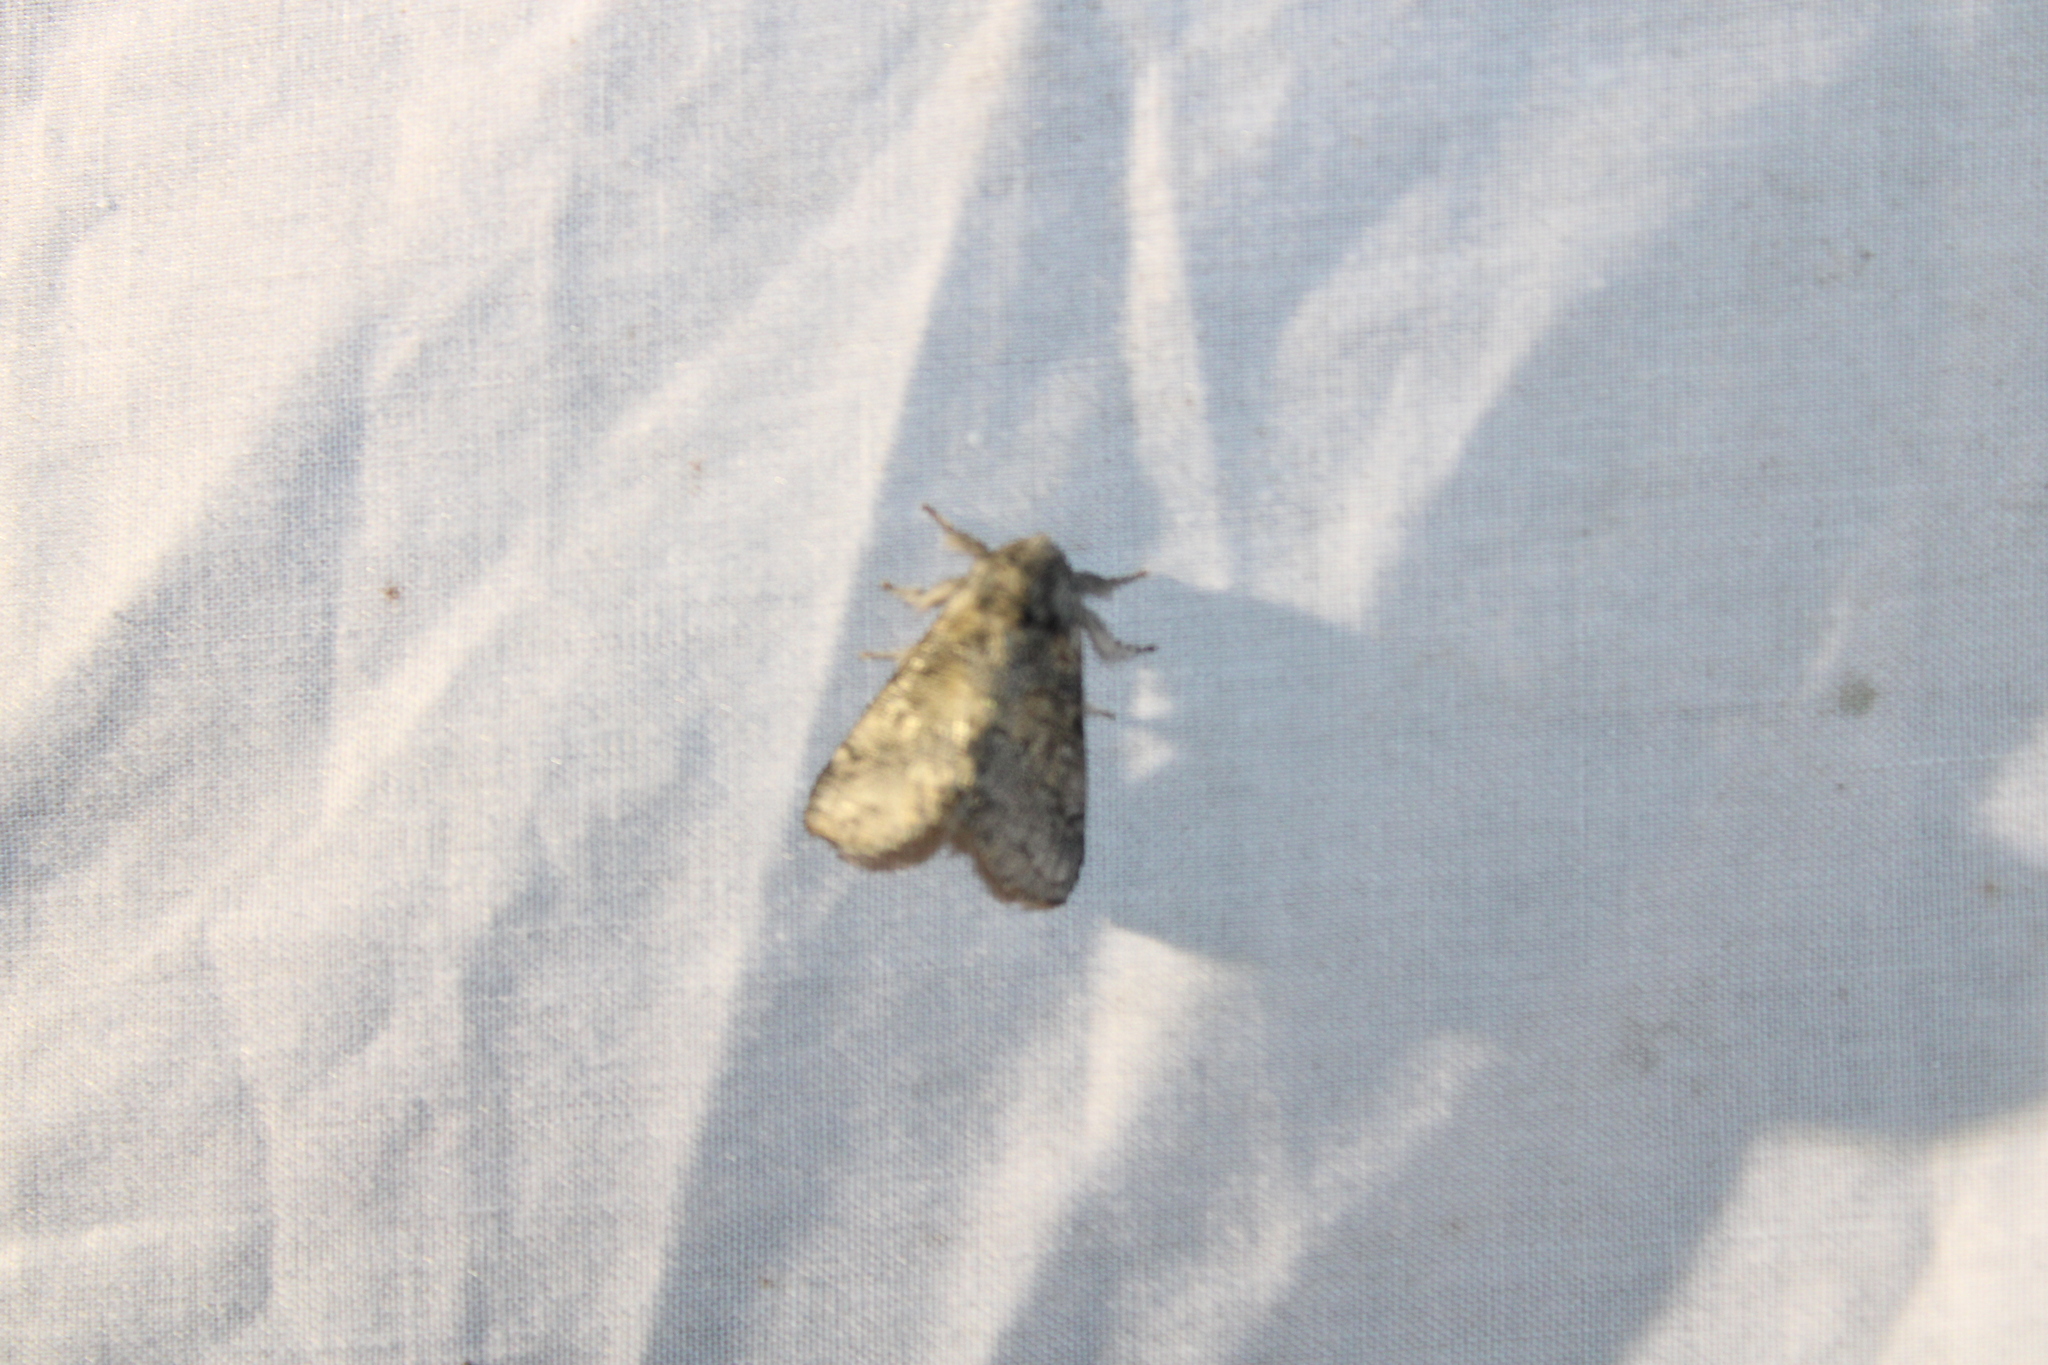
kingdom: Animalia
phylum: Arthropoda
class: Insecta
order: Lepidoptera
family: Notodontidae
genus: Gluphisia
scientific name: Gluphisia septentrionis
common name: Common gluphisia
